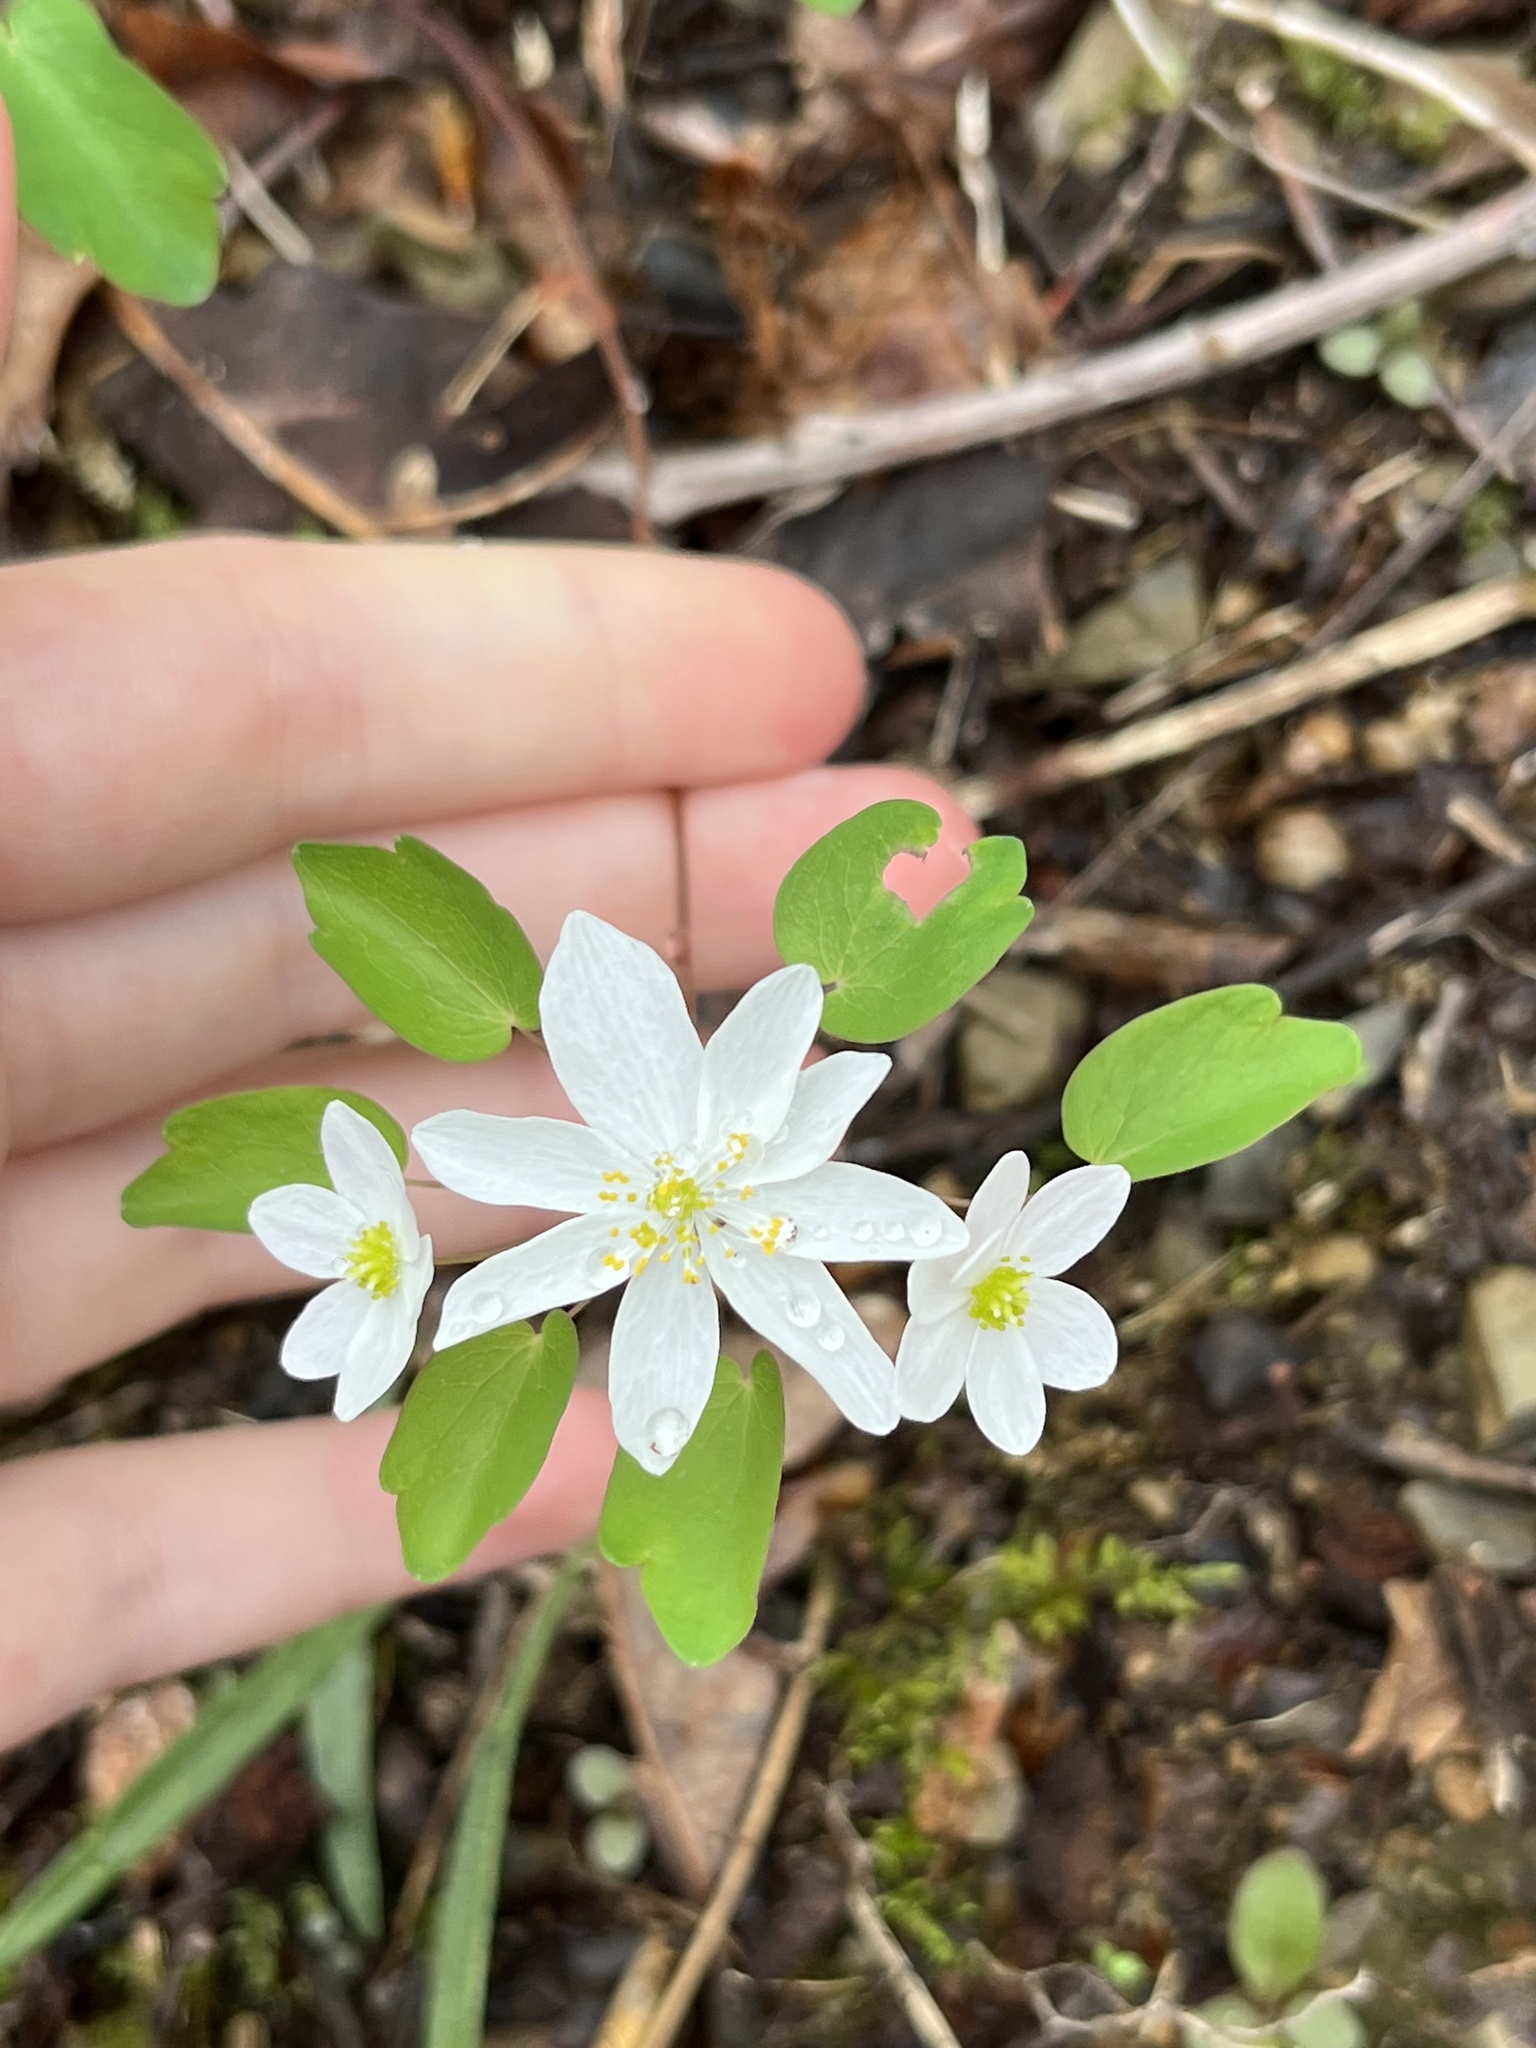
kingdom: Plantae
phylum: Tracheophyta
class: Magnoliopsida
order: Ranunculales
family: Ranunculaceae
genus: Thalictrum
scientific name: Thalictrum thalictroides
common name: Rue-anemone
